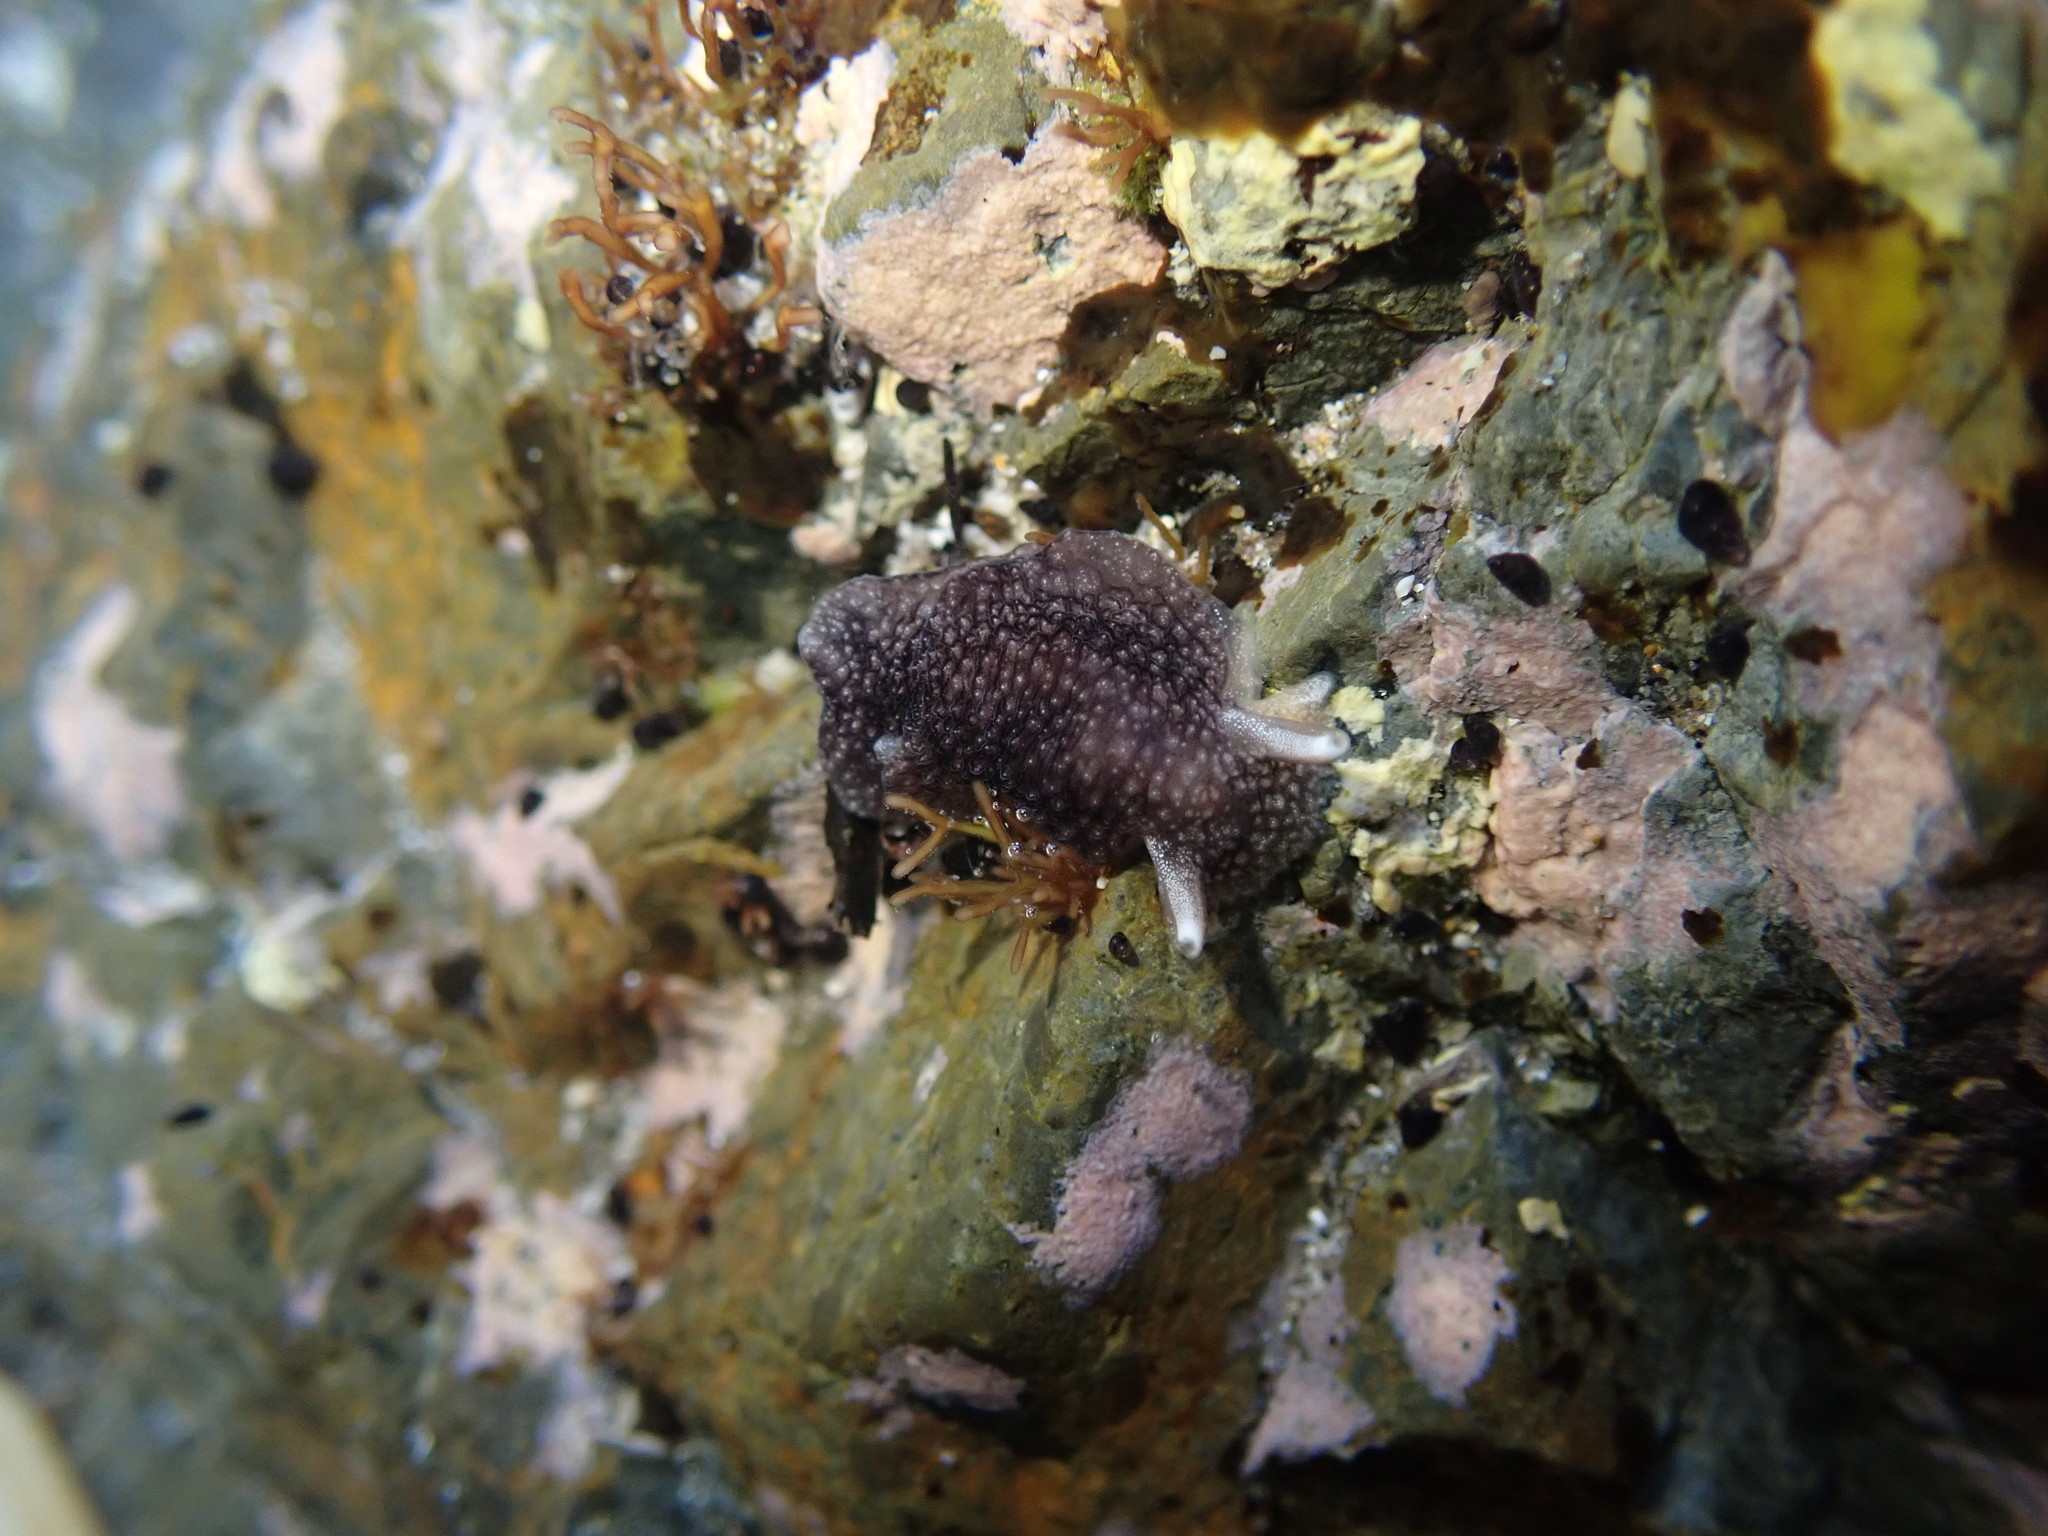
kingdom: Animalia
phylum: Mollusca
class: Gastropoda
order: Pleurobranchida
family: Pleurobranchaeidae
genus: Pleurobranchaea
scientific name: Pleurobranchaea maculata
